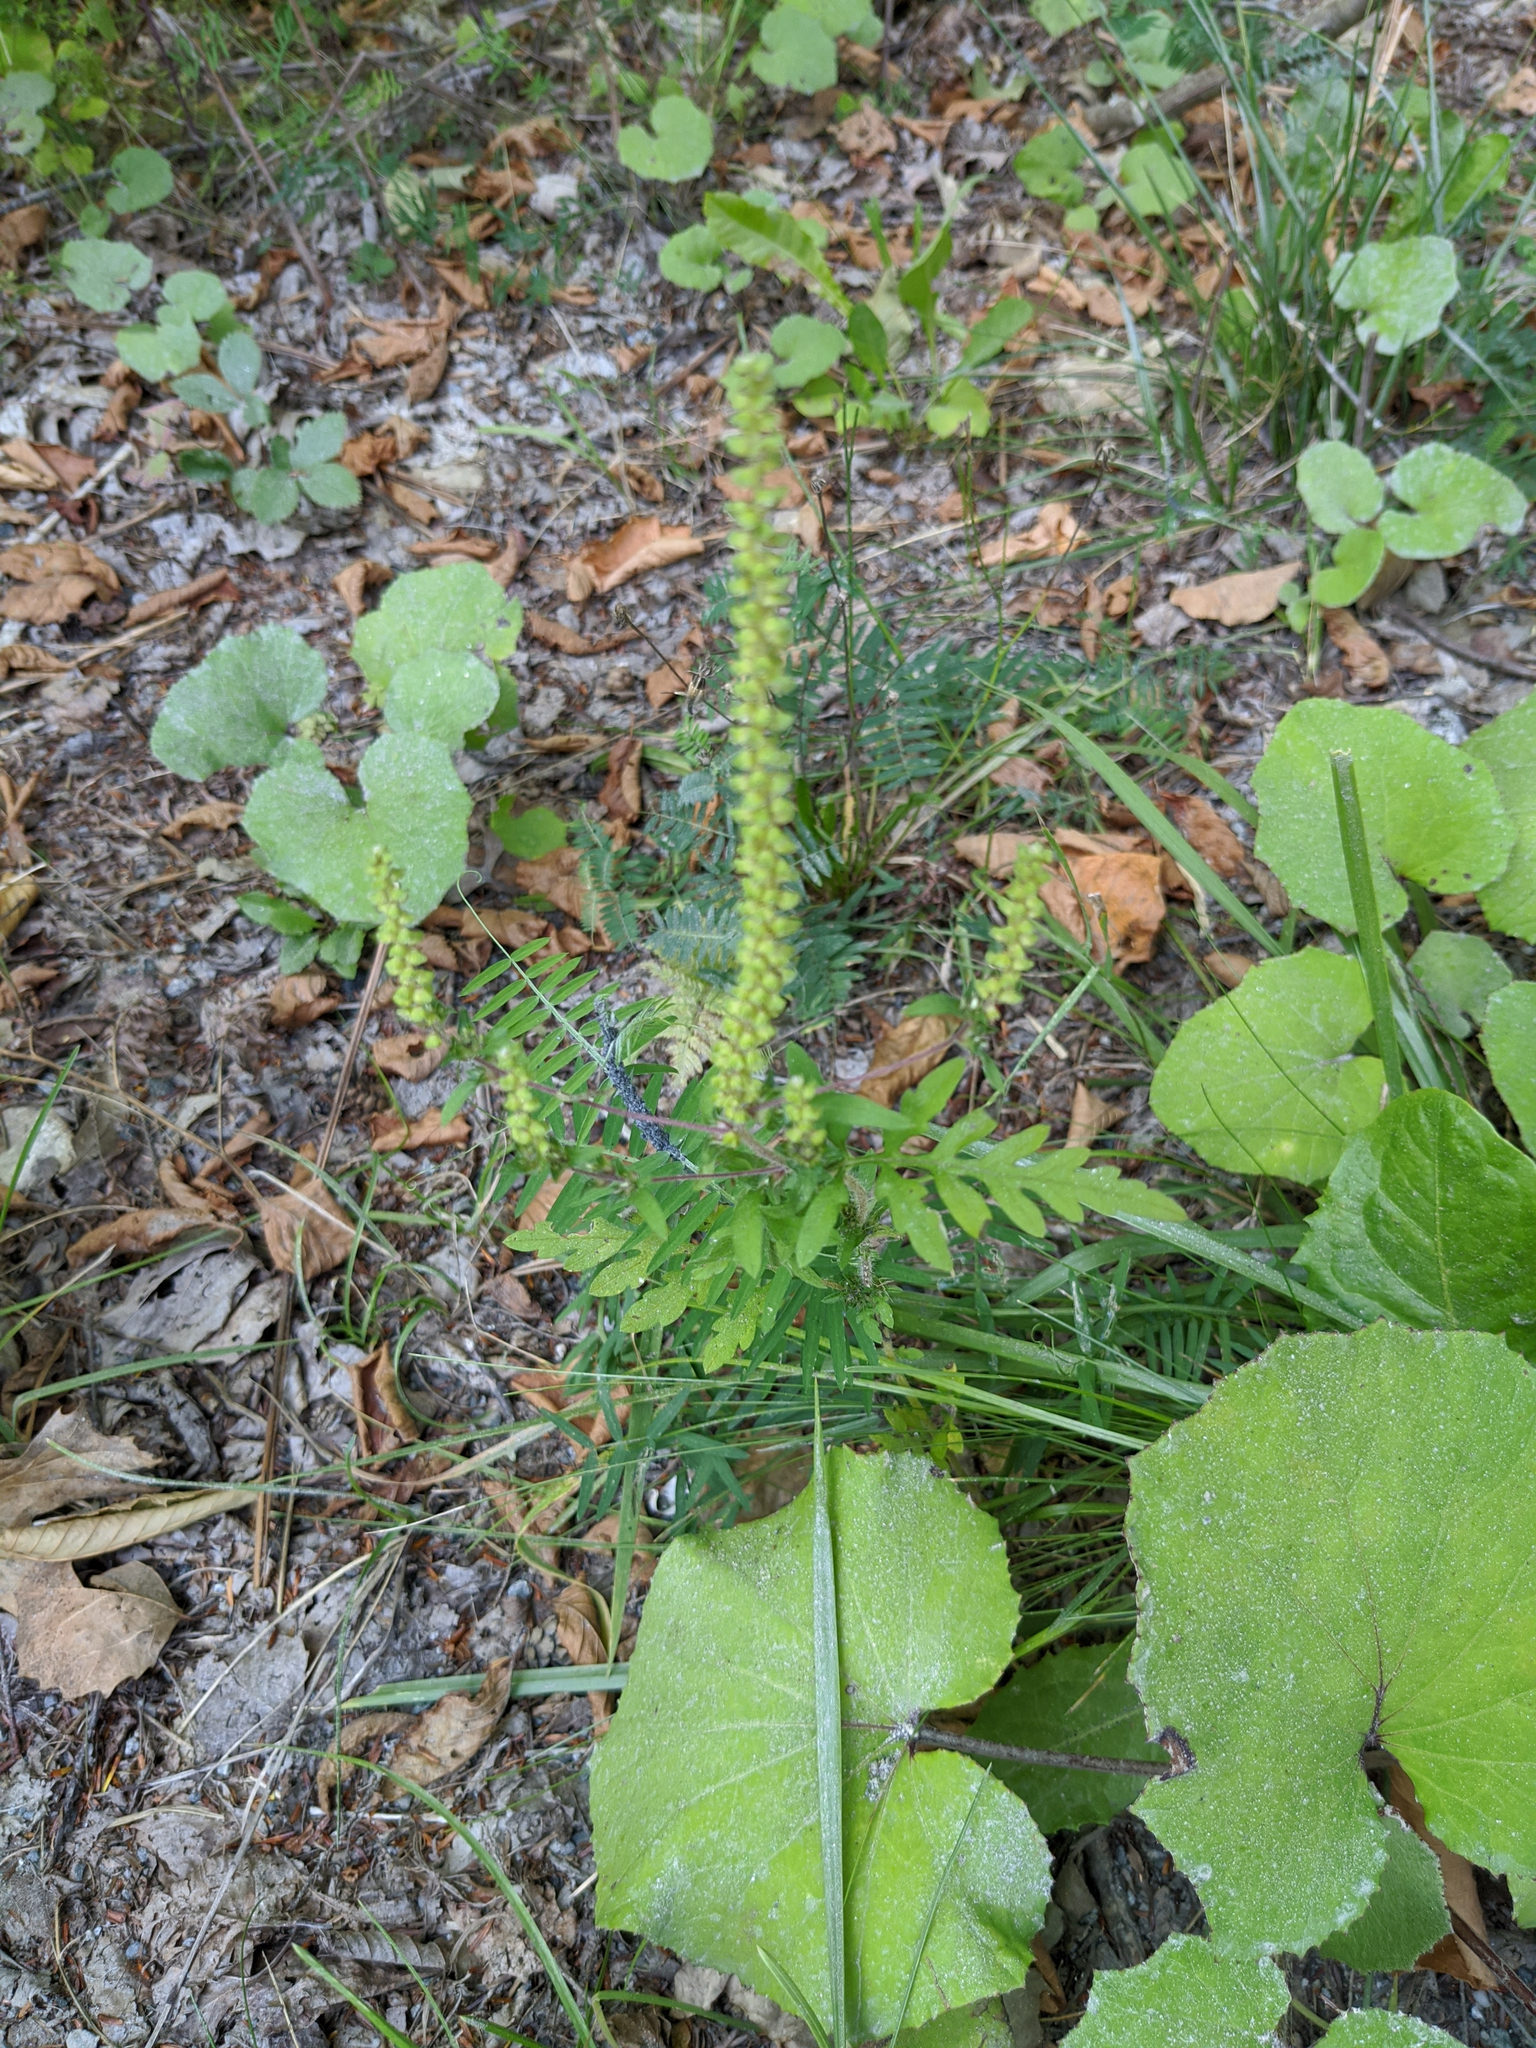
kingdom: Plantae
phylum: Tracheophyta
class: Magnoliopsida
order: Asterales
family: Asteraceae
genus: Ambrosia
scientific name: Ambrosia artemisiifolia
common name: Annual ragweed
